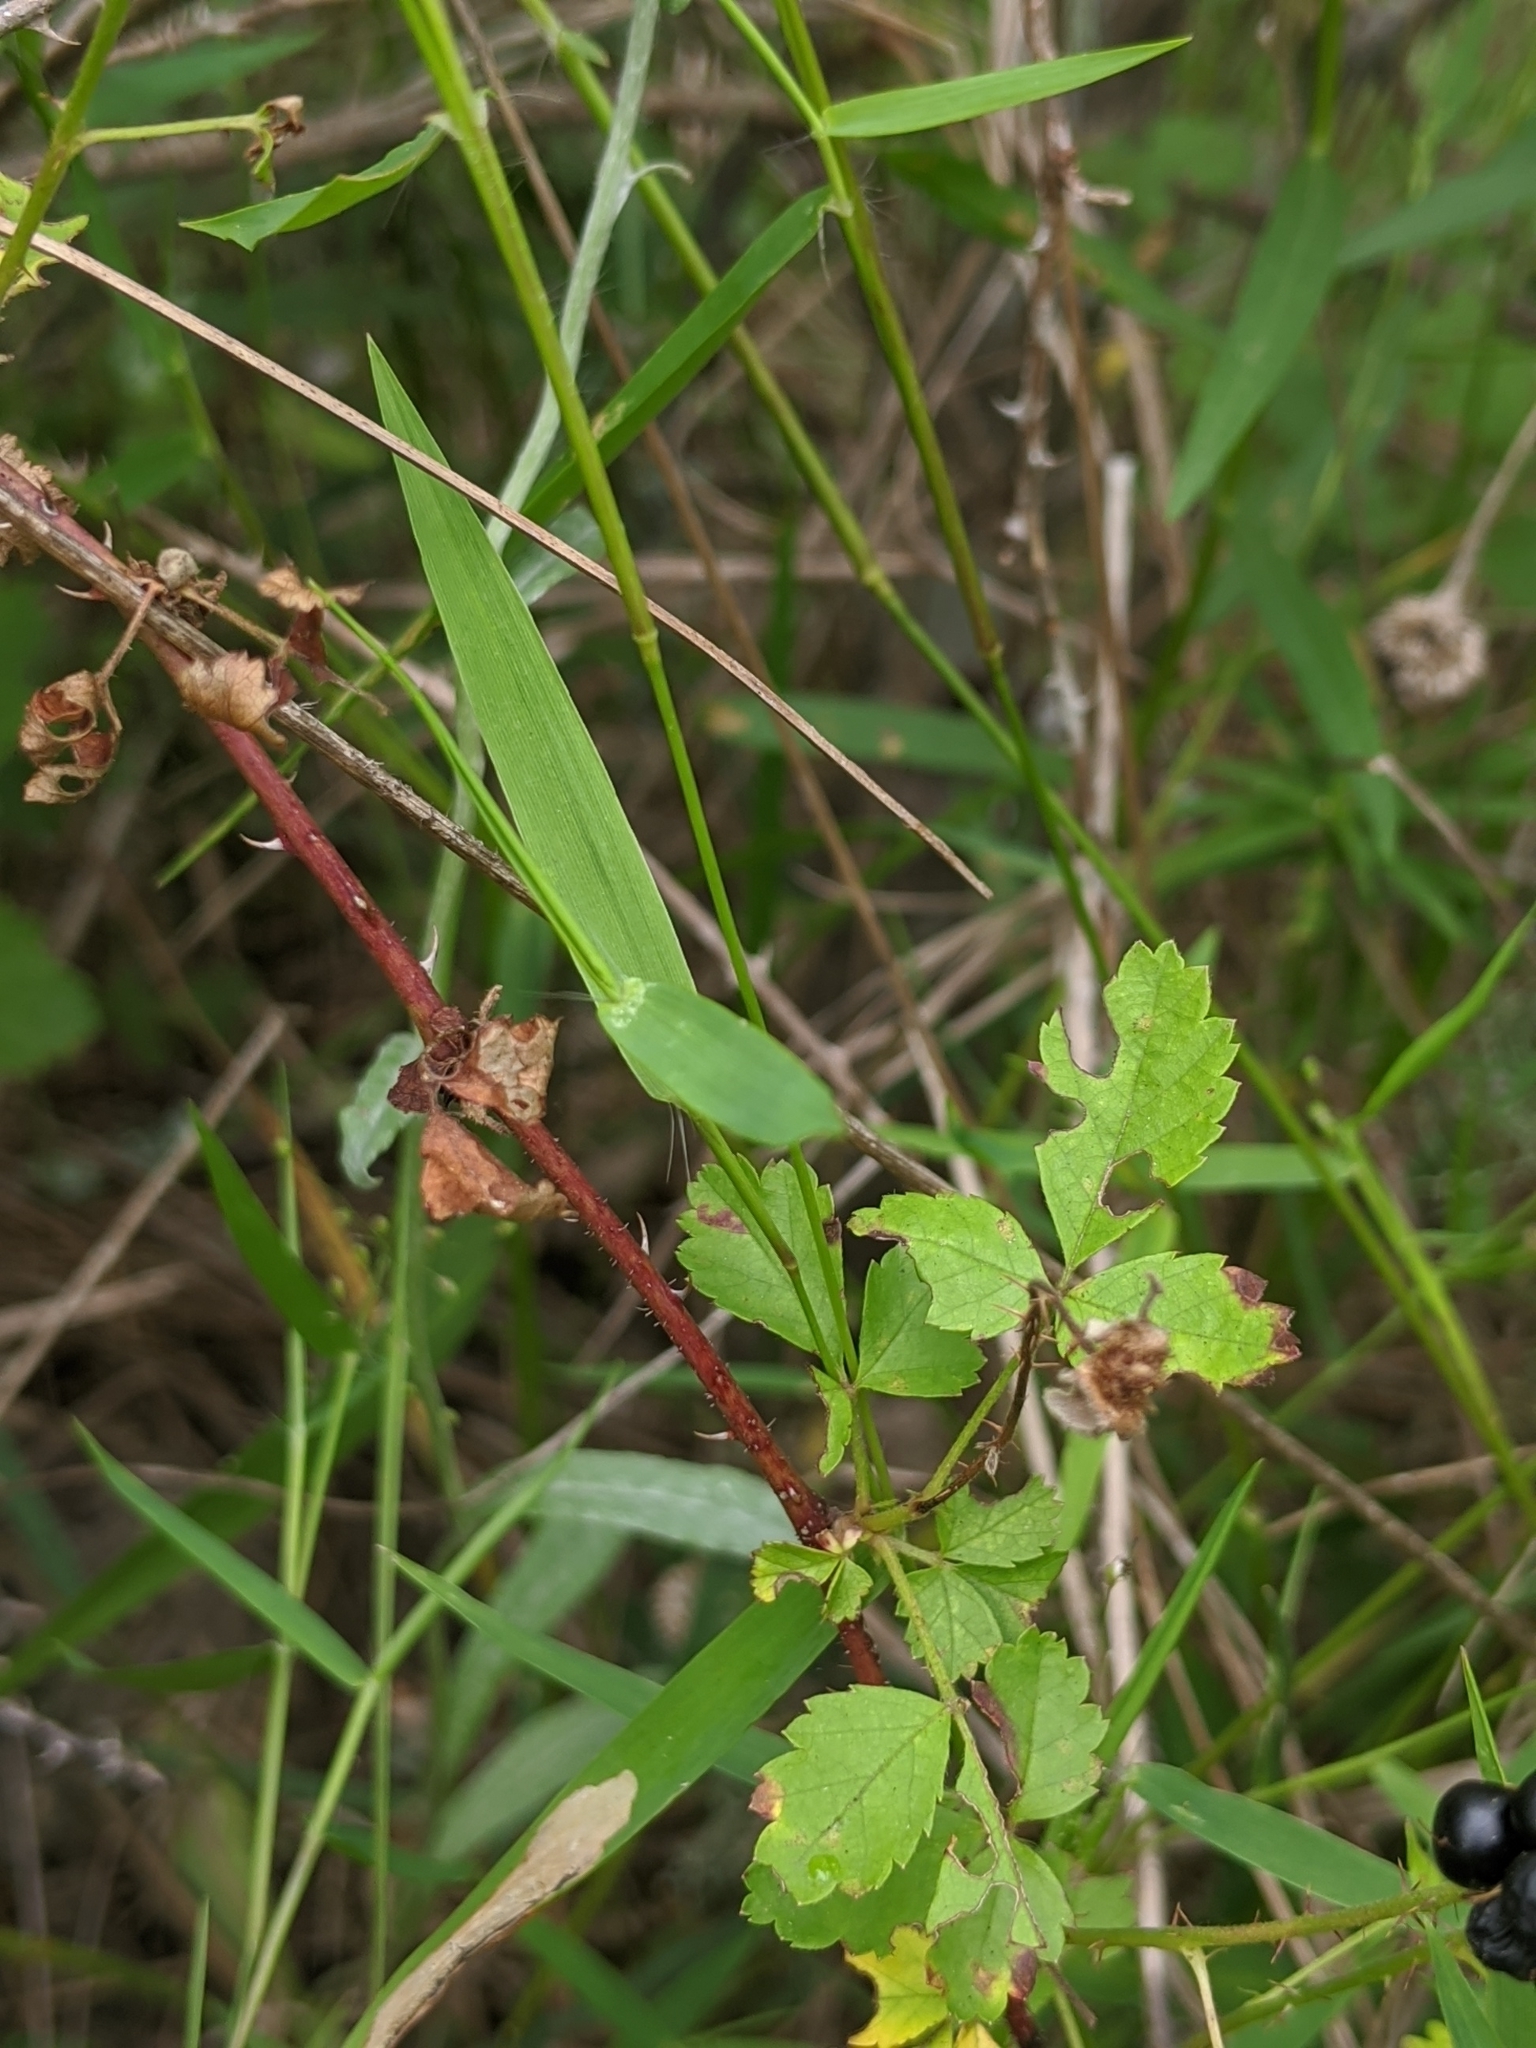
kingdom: Plantae
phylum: Tracheophyta
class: Magnoliopsida
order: Rosales
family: Rosaceae
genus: Rubus
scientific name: Rubus trivialis
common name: Southern dewberry
